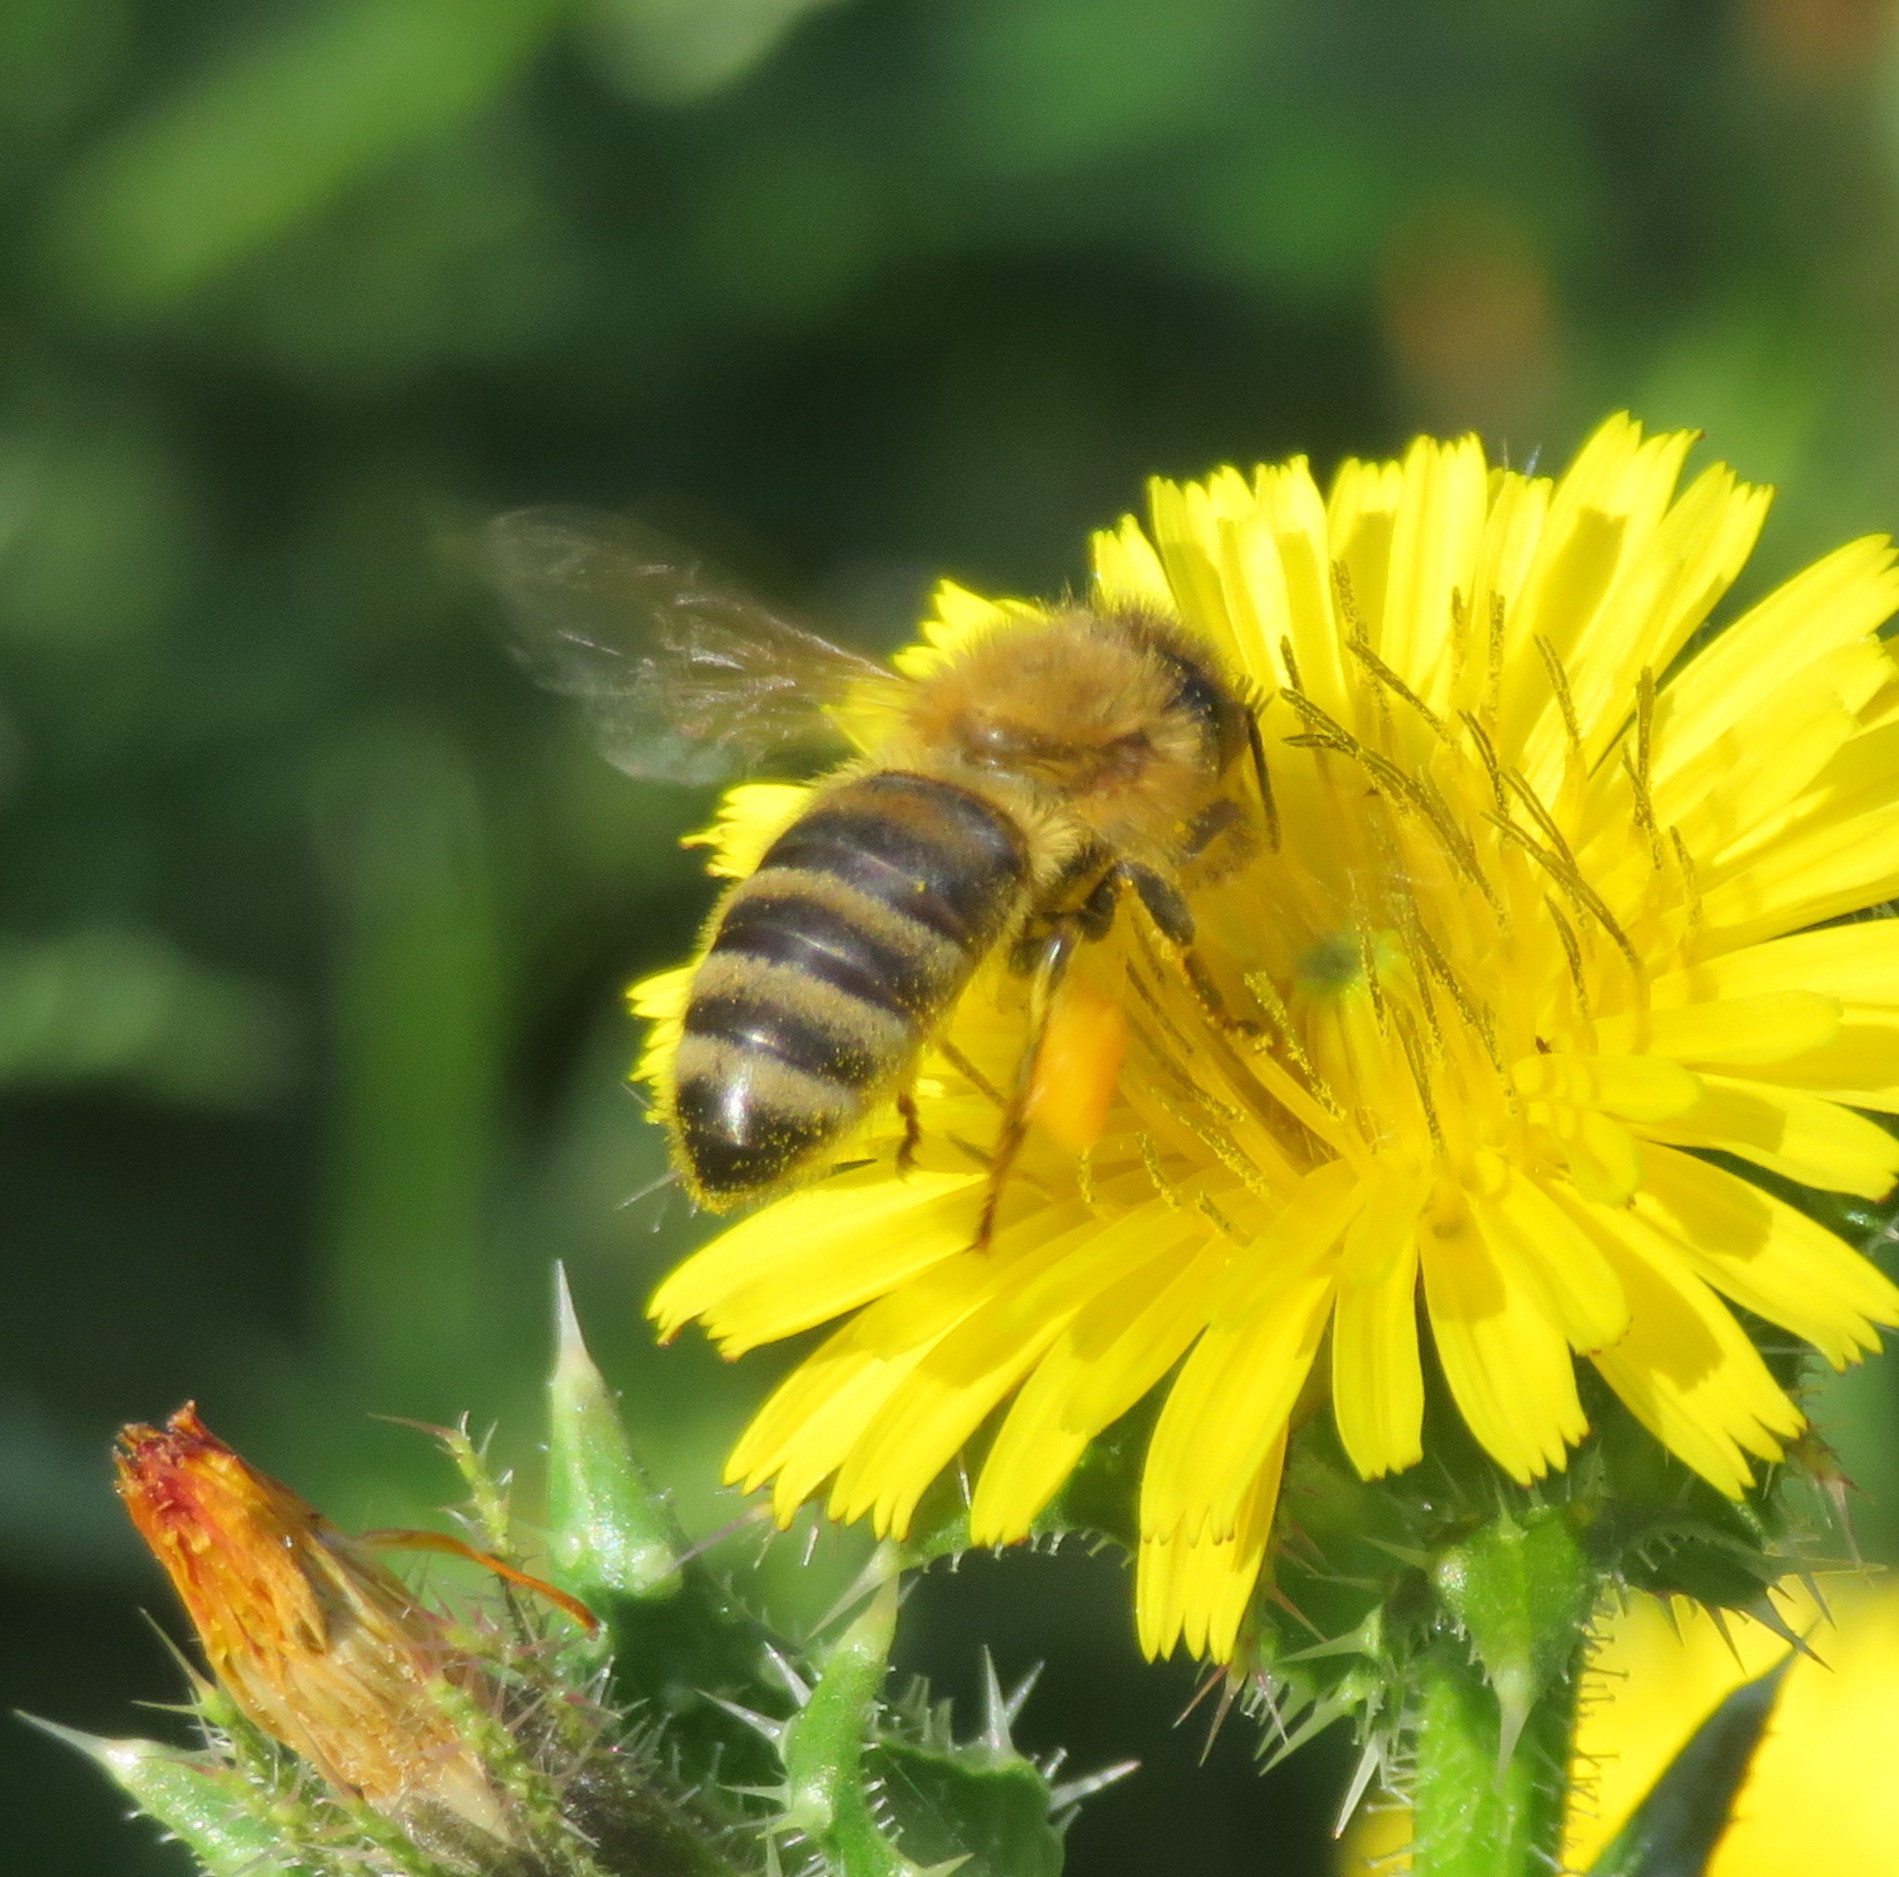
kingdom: Animalia
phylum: Arthropoda
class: Insecta
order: Hymenoptera
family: Apidae
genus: Apis
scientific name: Apis mellifera
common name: Honey bee
